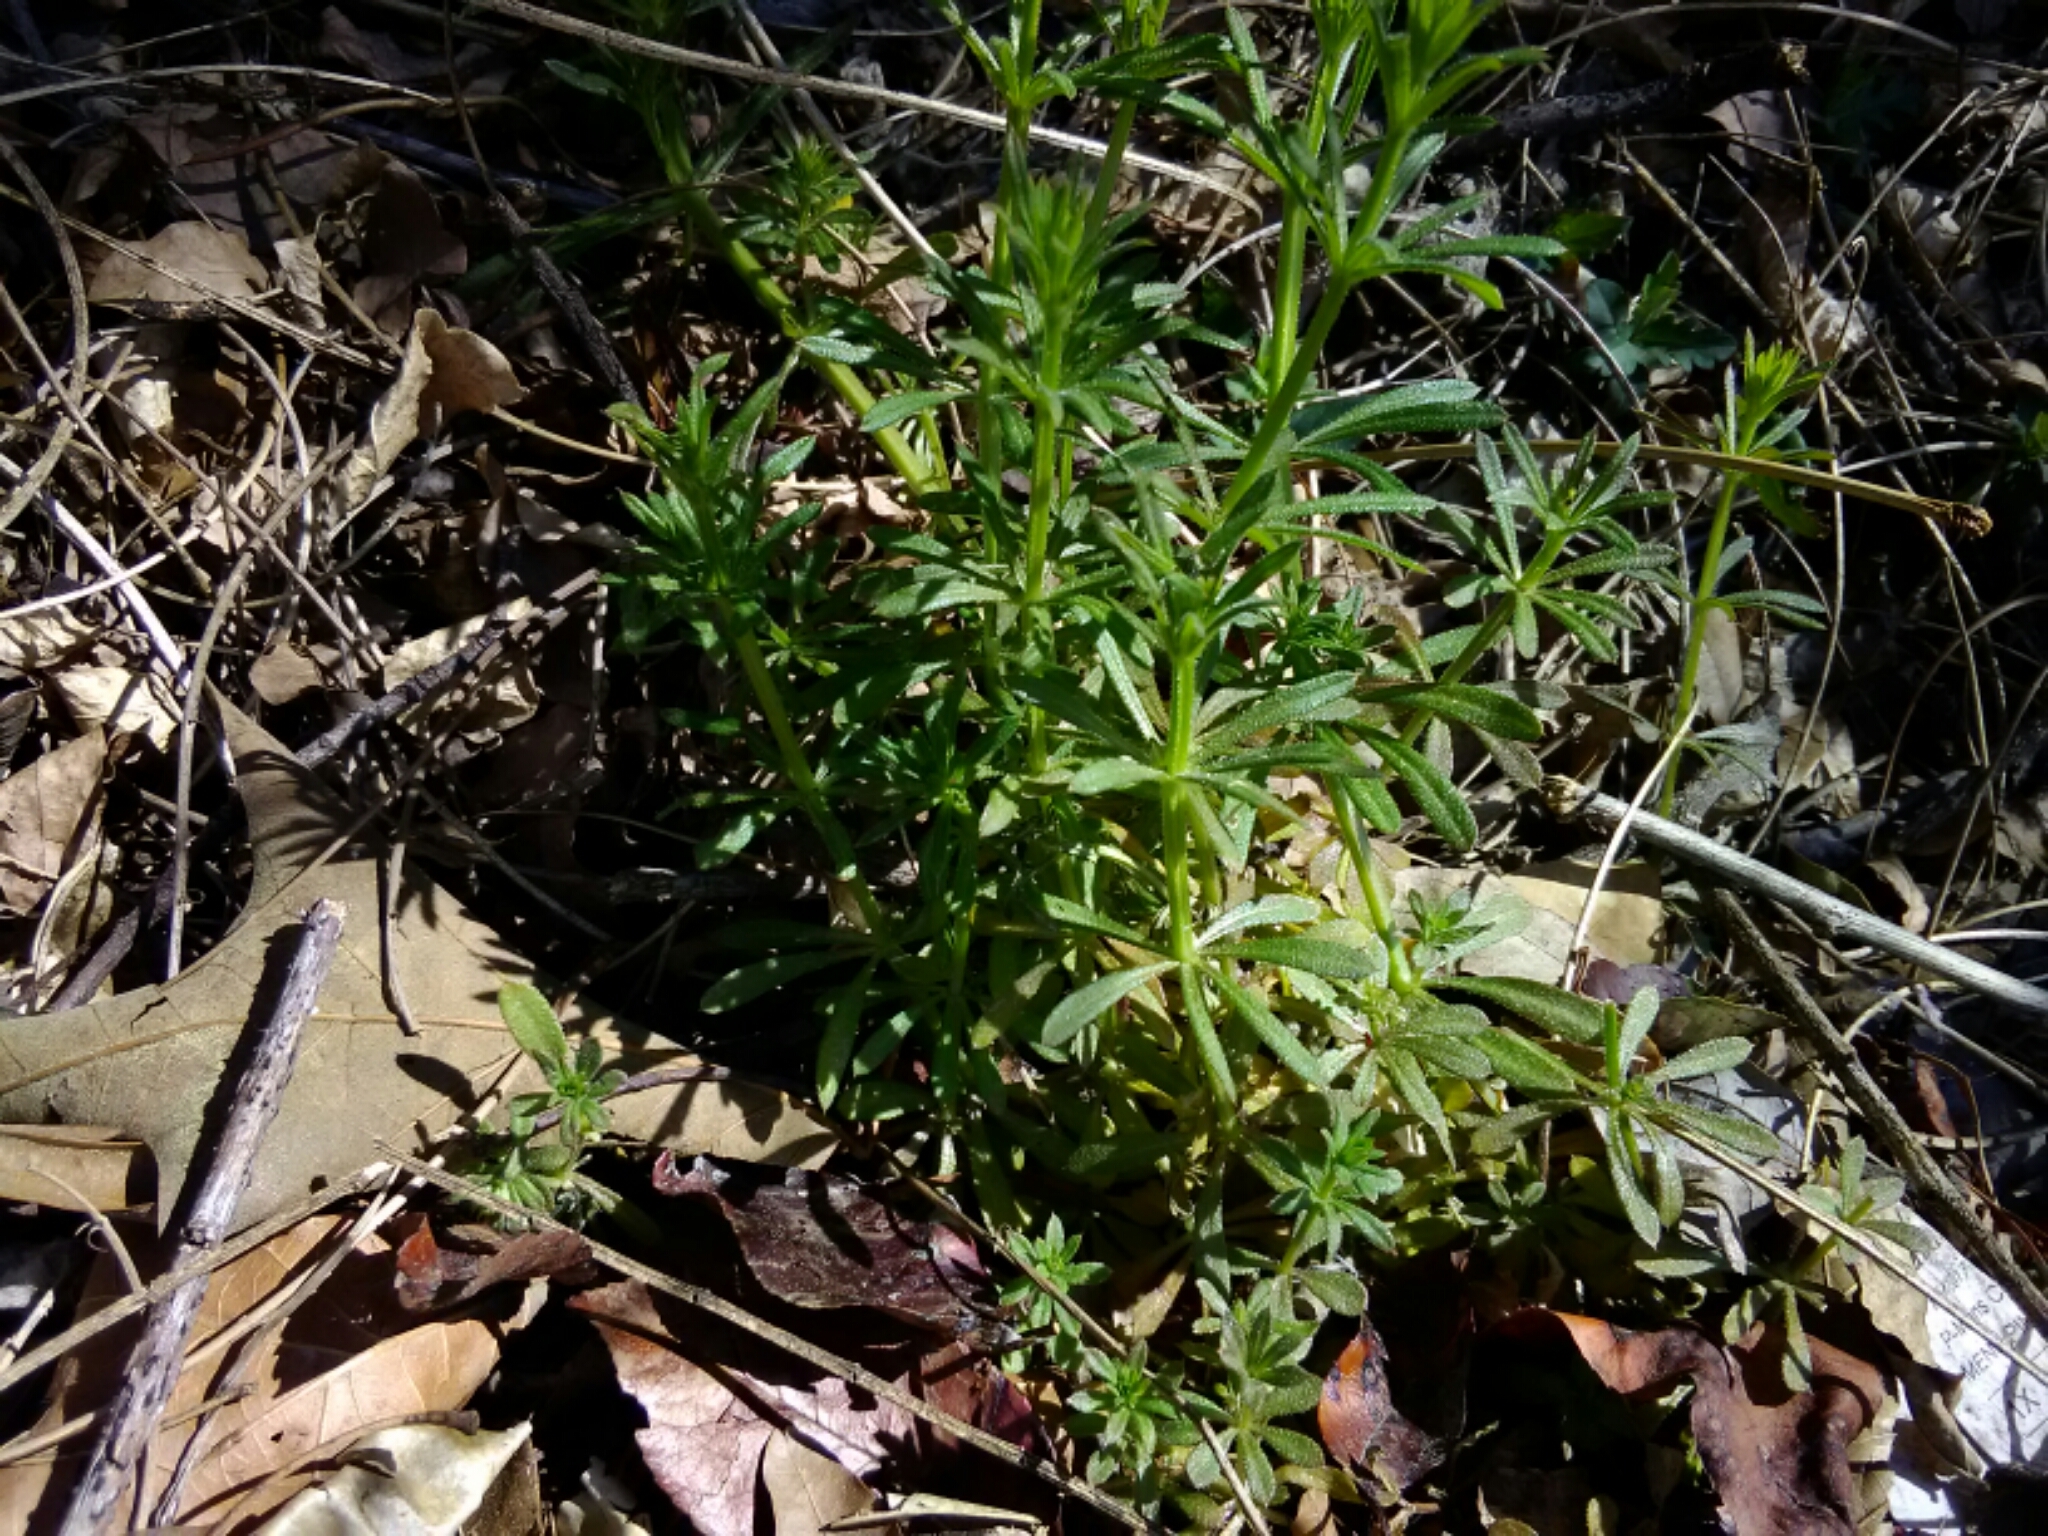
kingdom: Plantae
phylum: Tracheophyta
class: Magnoliopsida
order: Gentianales
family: Rubiaceae
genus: Galium
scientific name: Galium aparine
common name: Cleavers
